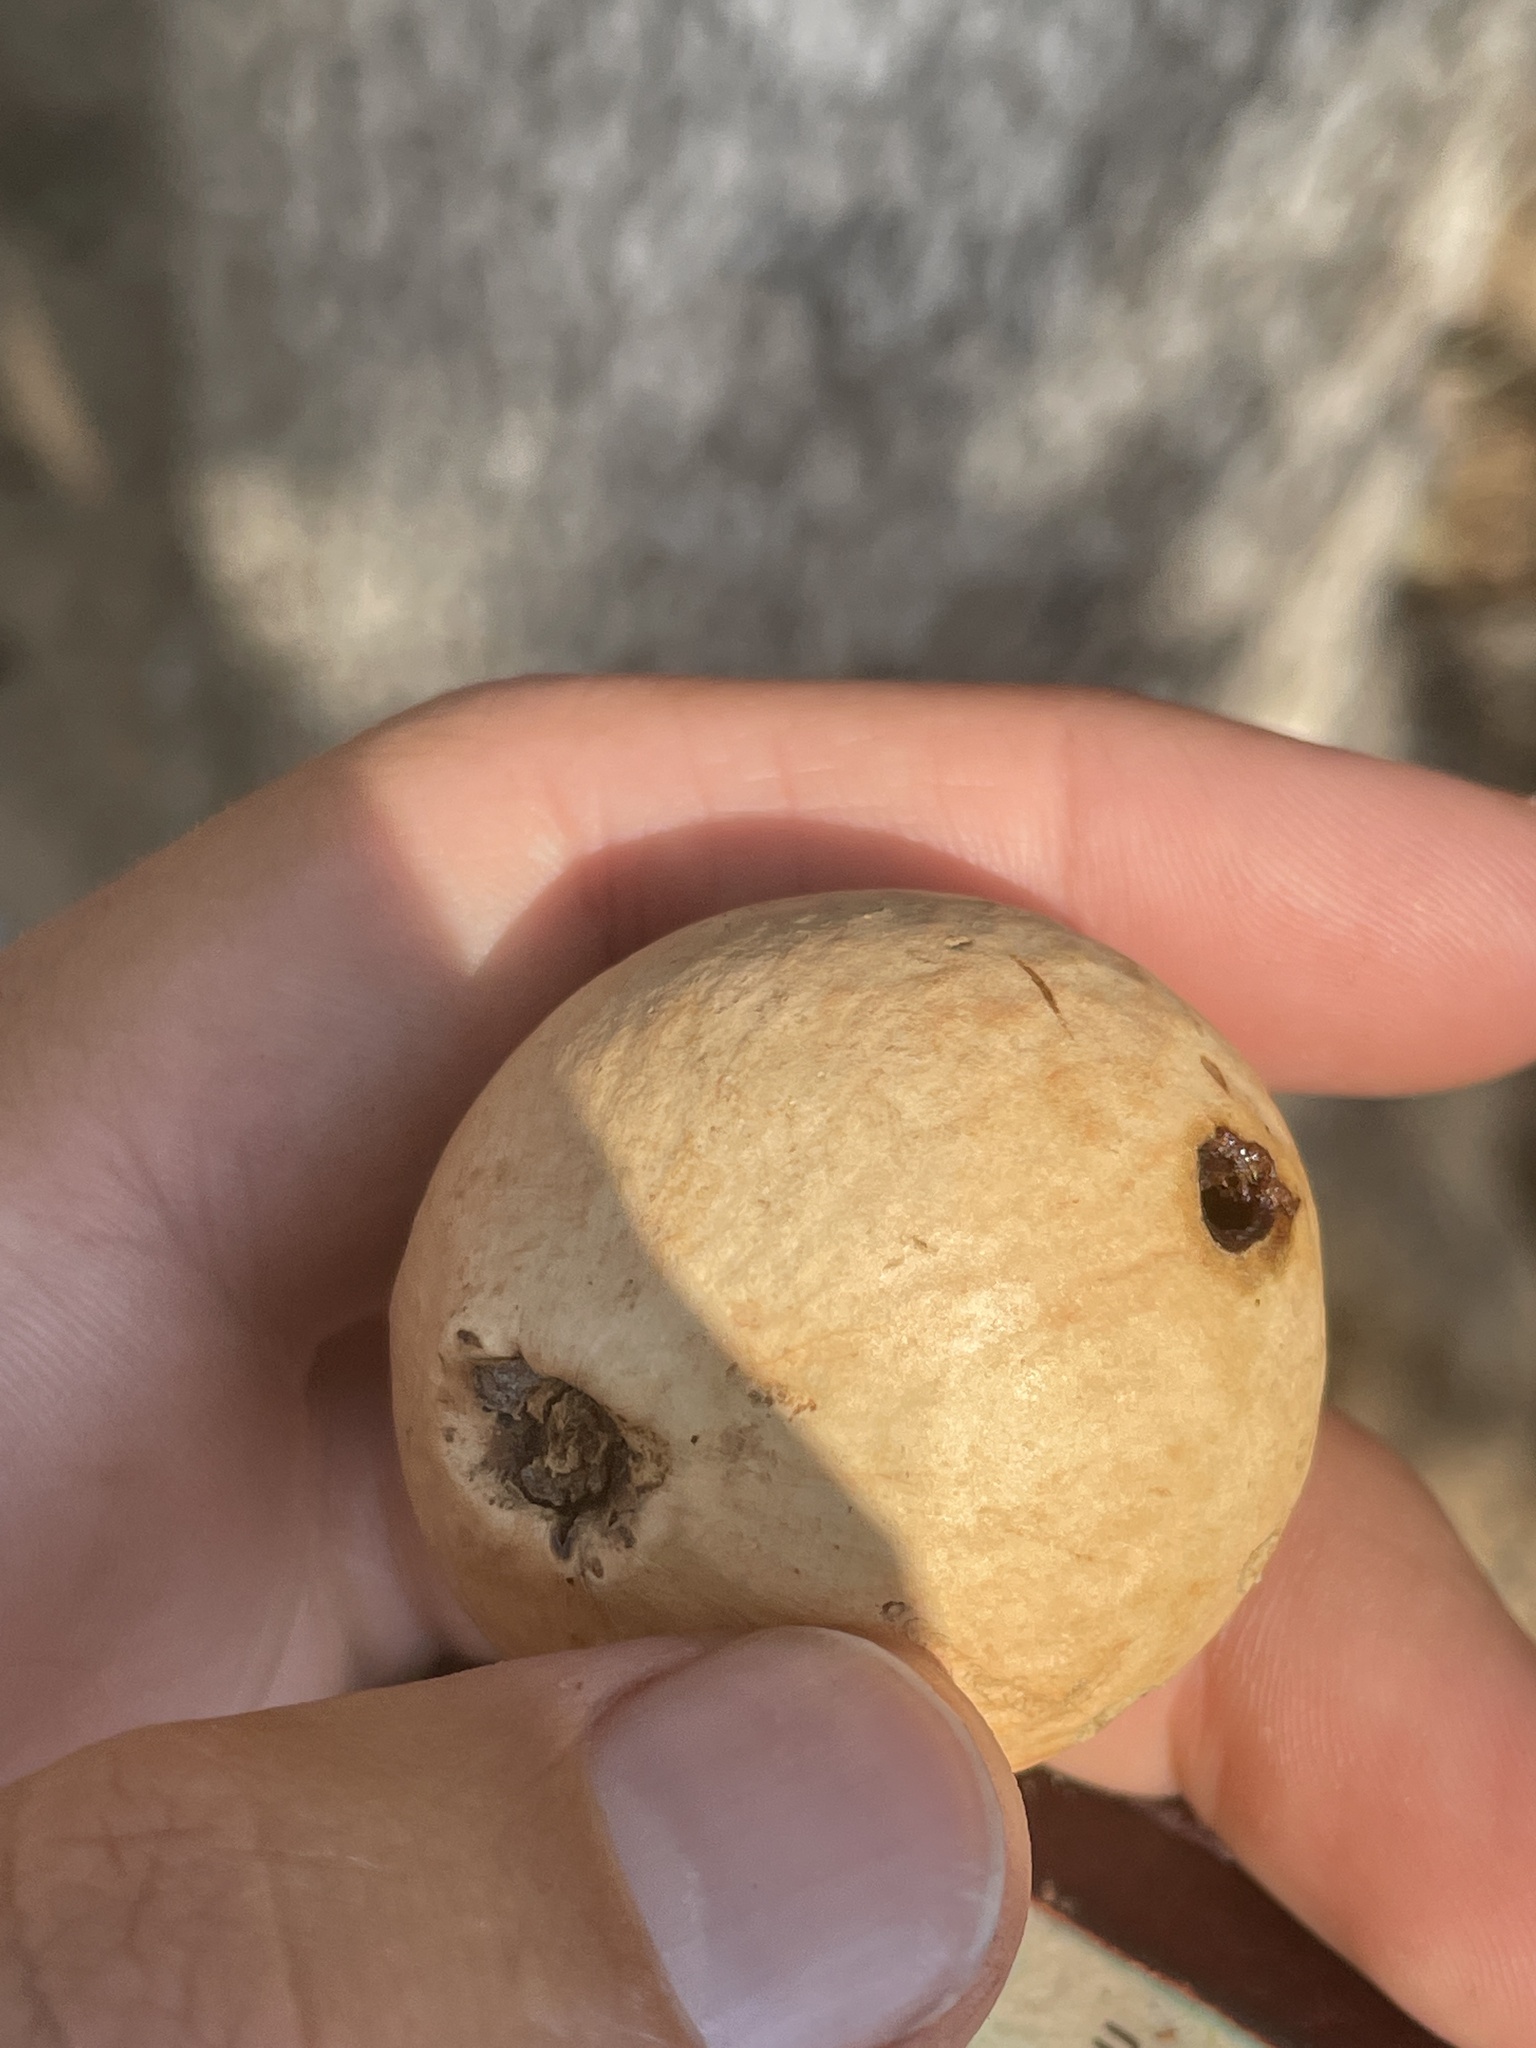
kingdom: Animalia
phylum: Arthropoda
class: Insecta
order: Hymenoptera
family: Cynipidae
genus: Andricus
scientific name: Andricus quercuscalifornicus
